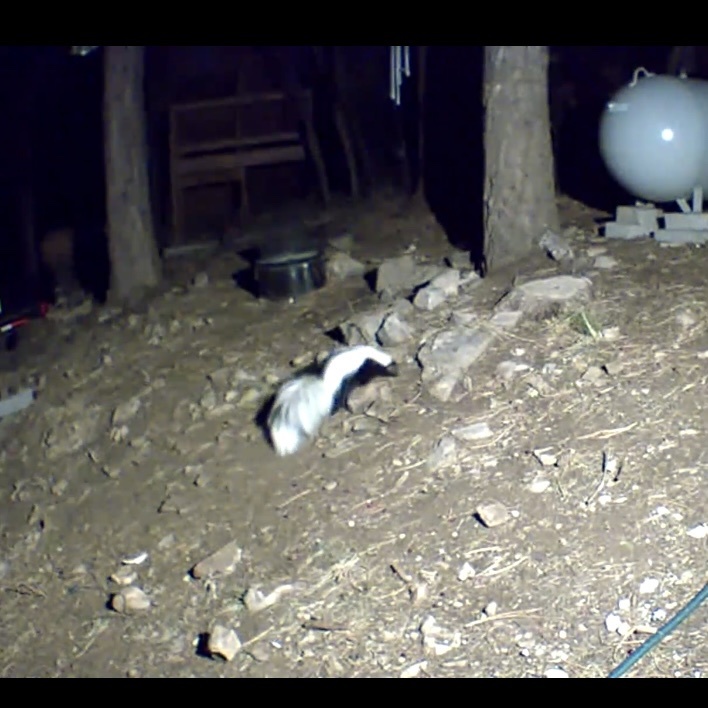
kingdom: Animalia
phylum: Chordata
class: Mammalia
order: Carnivora
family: Mephitidae
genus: Mephitis
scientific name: Mephitis mephitis
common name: Striped skunk
